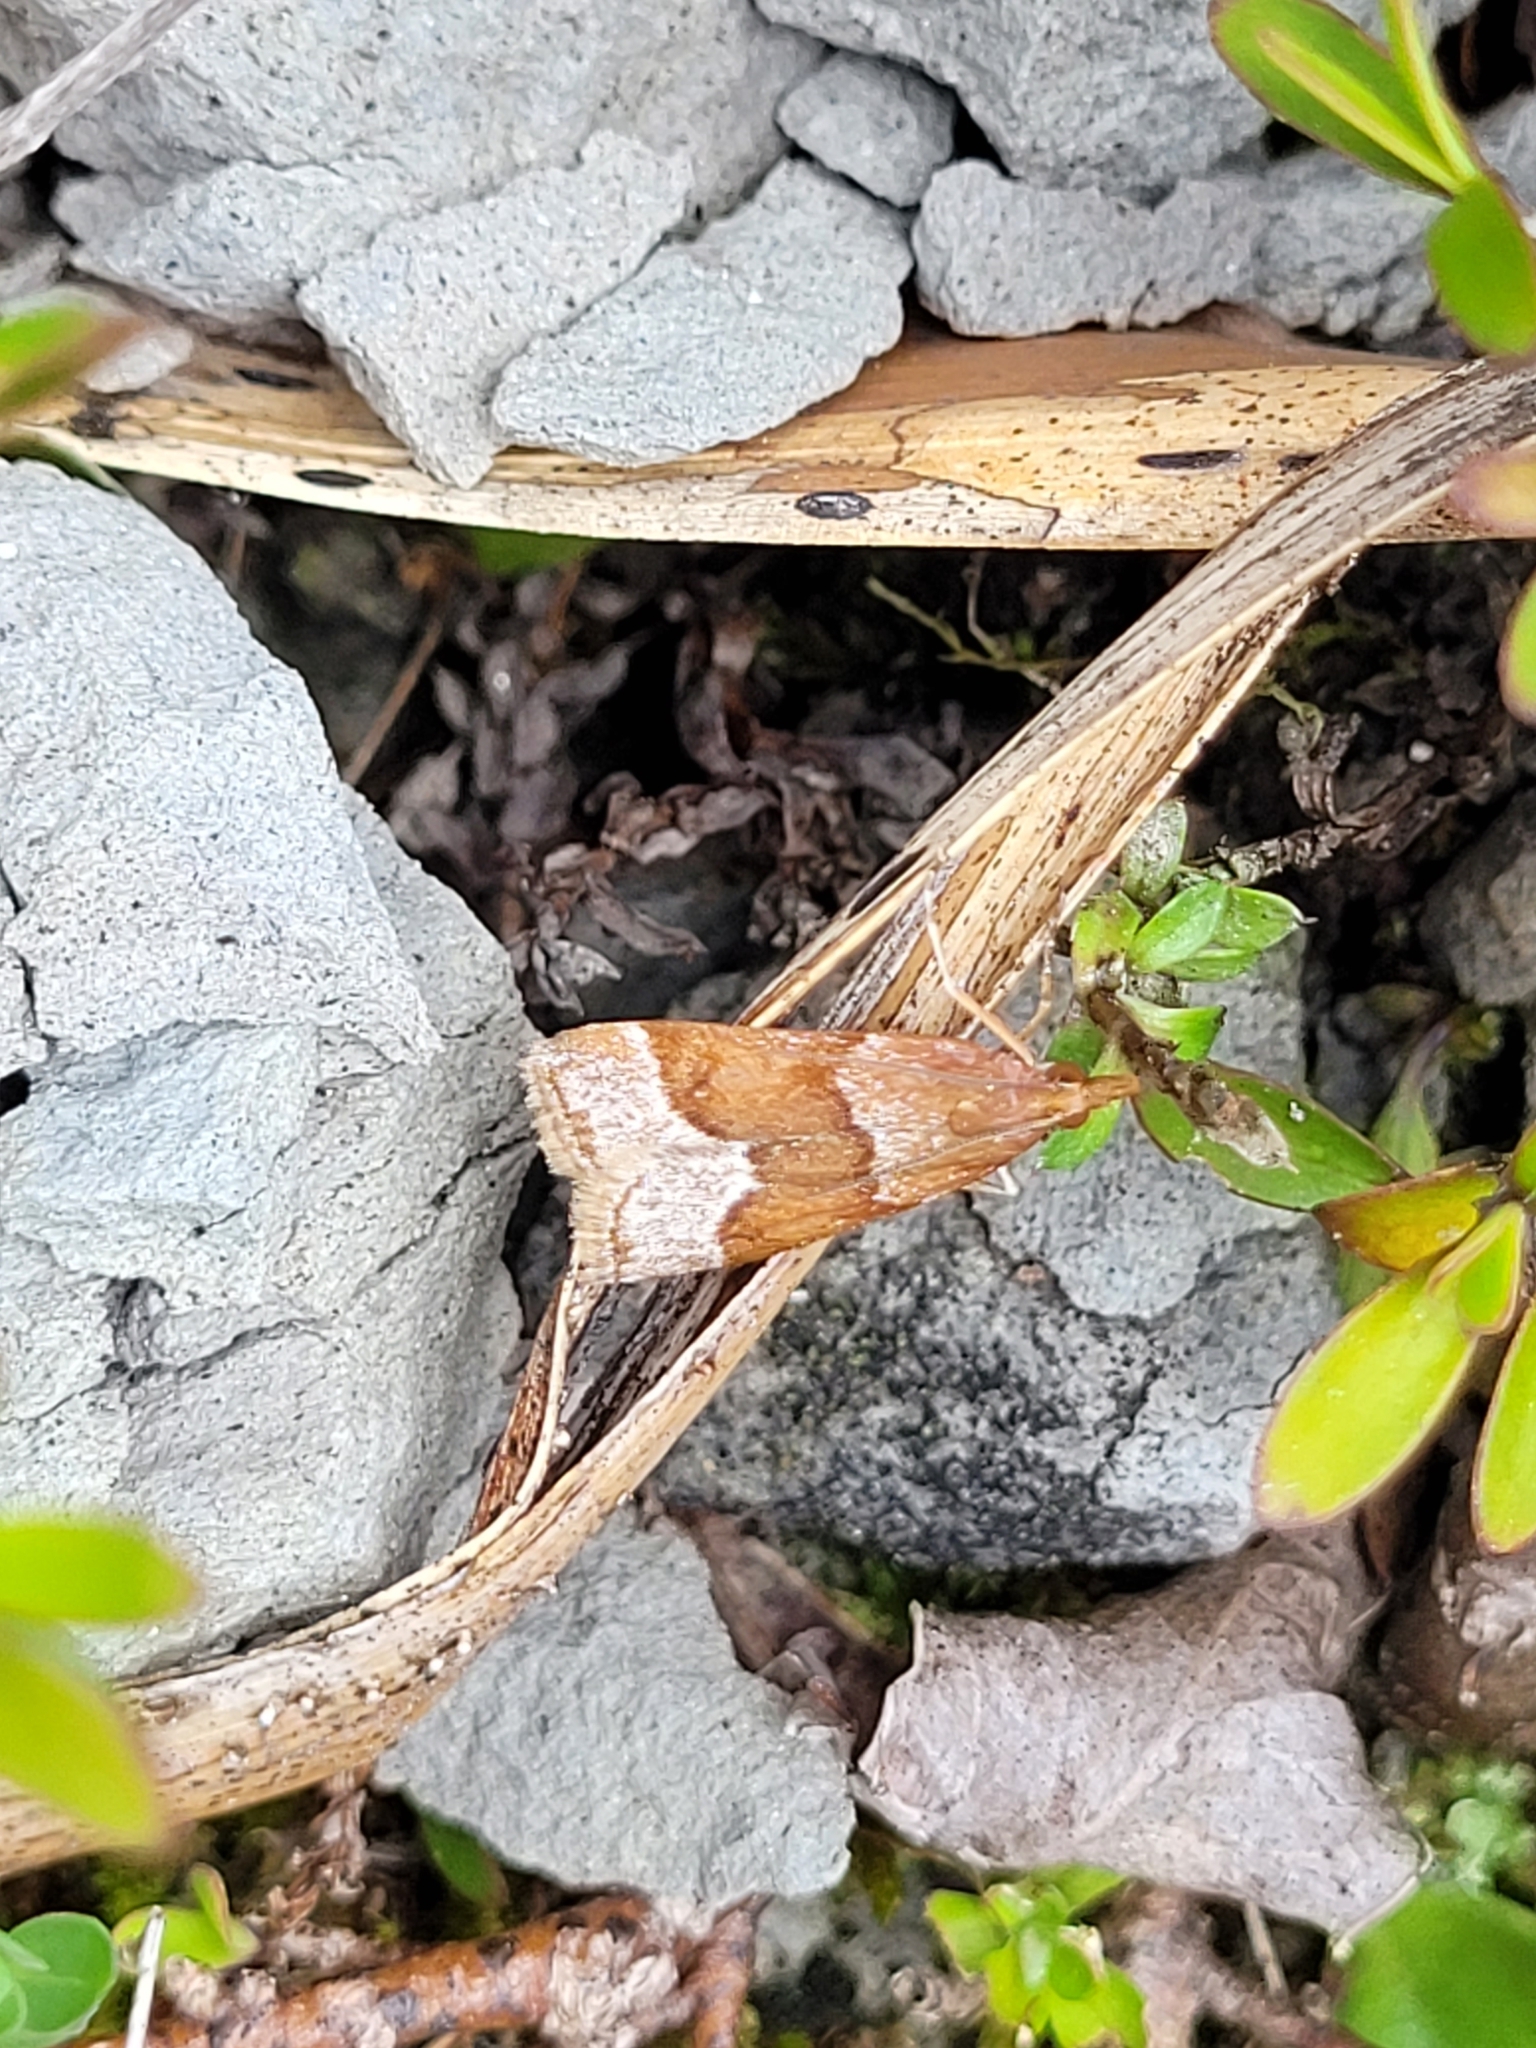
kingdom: Animalia
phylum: Arthropoda
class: Insecta
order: Lepidoptera
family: Crambidae
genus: Eudonia
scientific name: Eudonia feredayi
